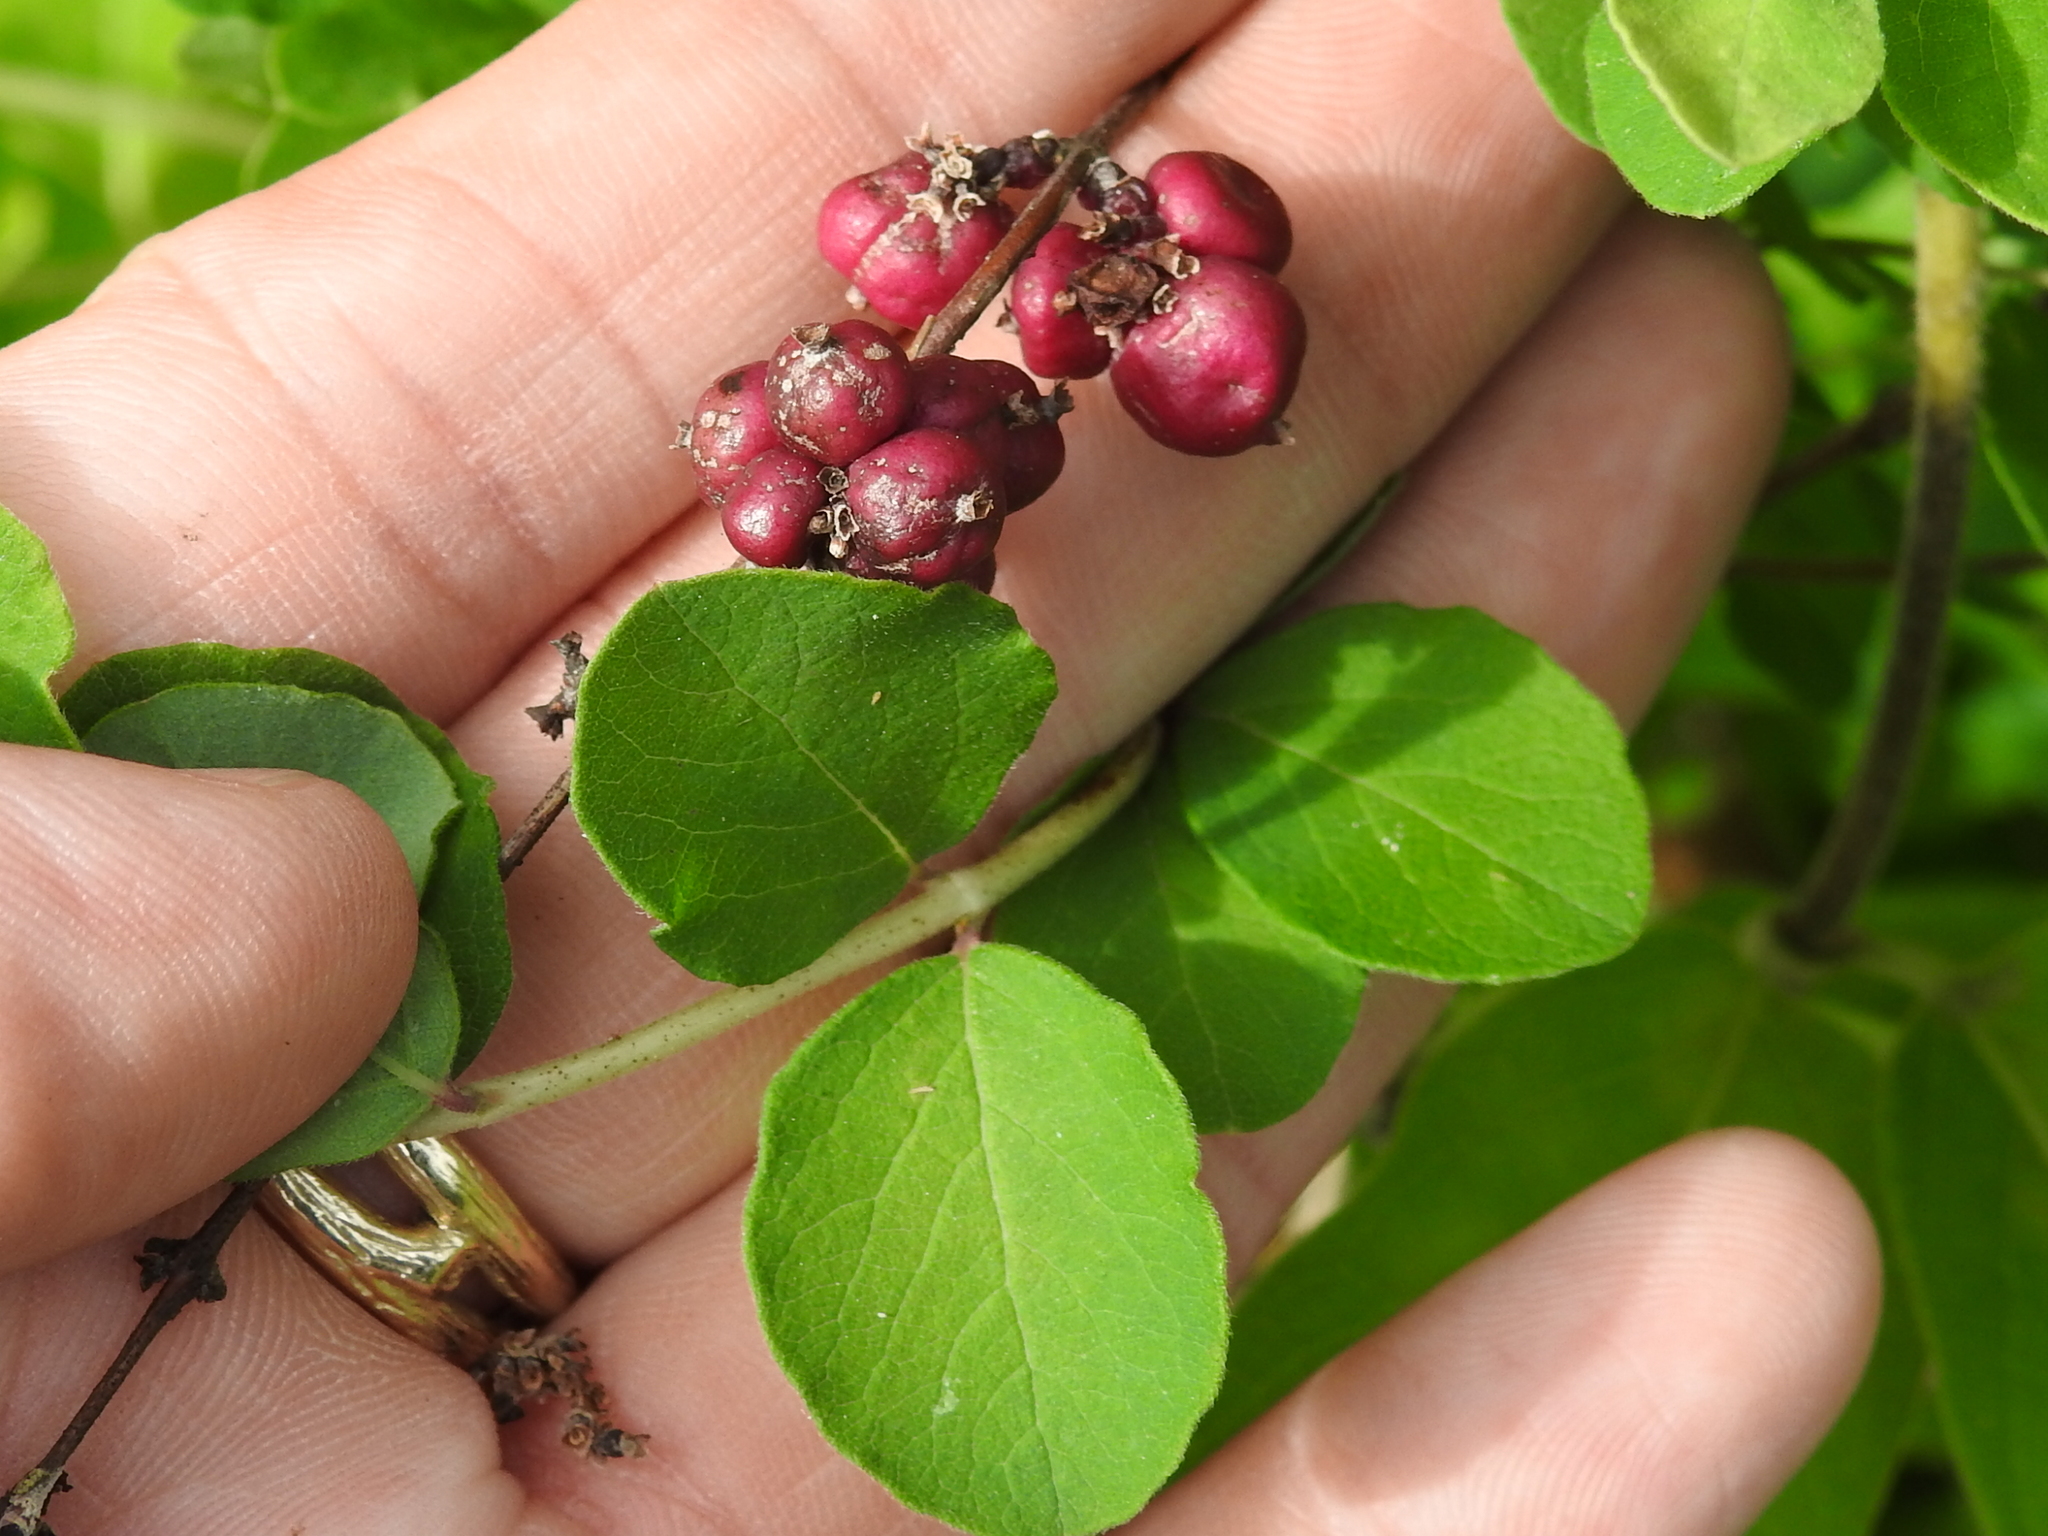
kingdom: Plantae
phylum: Tracheophyta
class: Magnoliopsida
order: Dipsacales
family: Caprifoliaceae
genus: Symphoricarpos
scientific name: Symphoricarpos orbiculatus
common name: Coralberry
